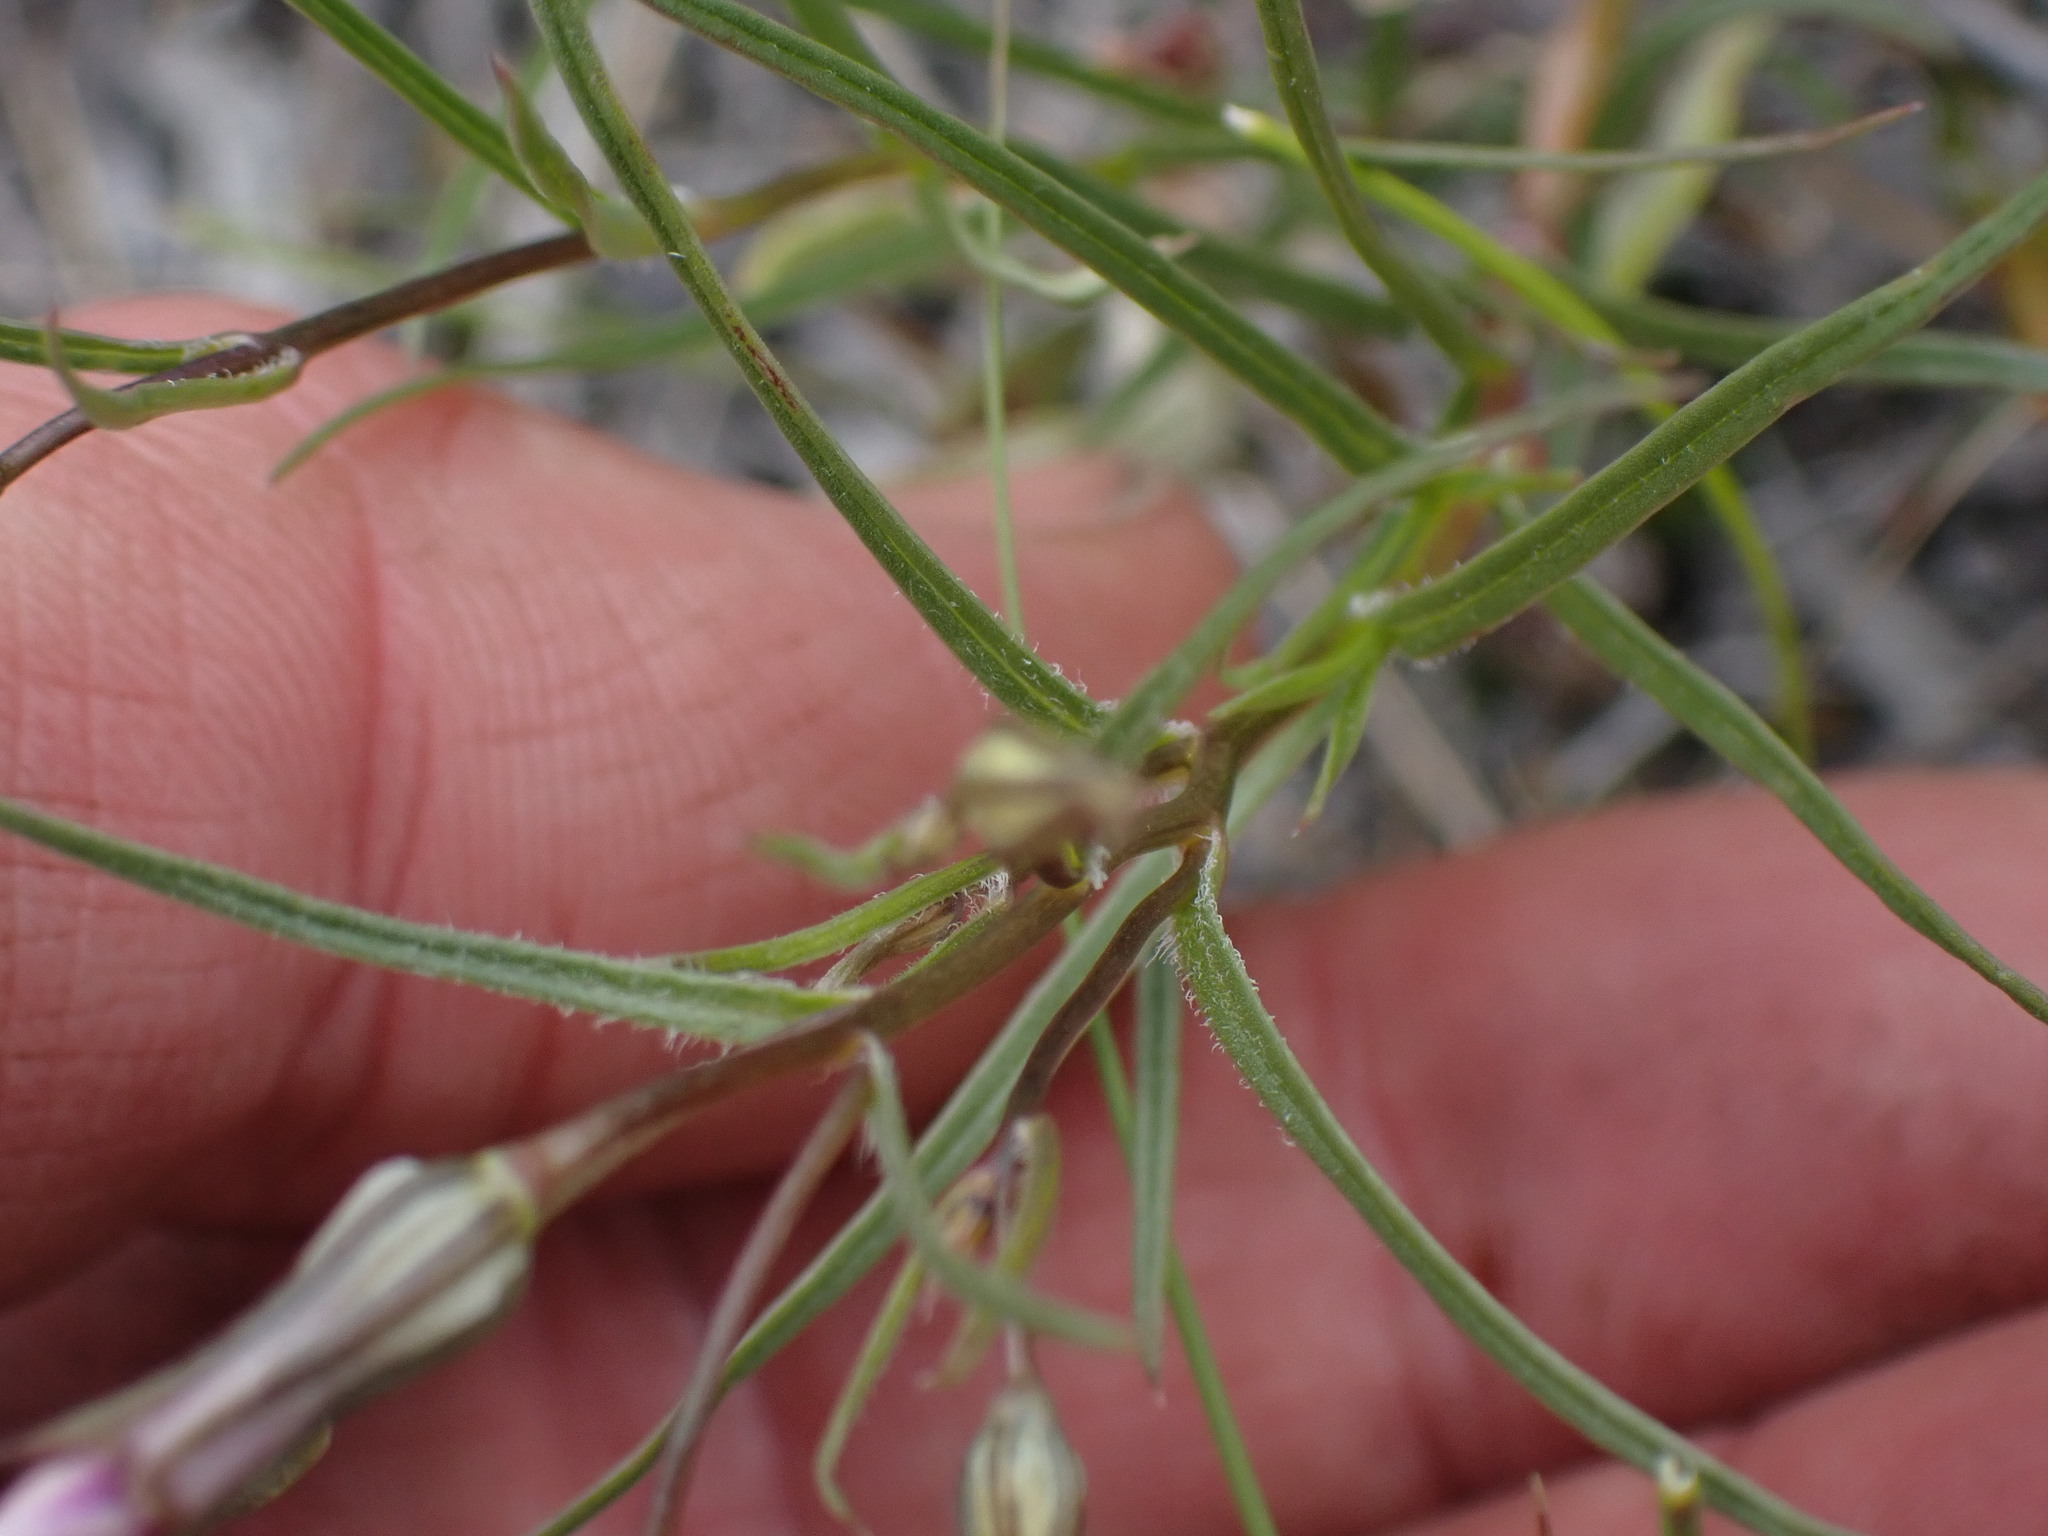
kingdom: Plantae
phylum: Tracheophyta
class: Magnoliopsida
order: Ericales
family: Polemoniaceae
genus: Phlox
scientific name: Phlox longifolia
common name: Longleaf phlox
